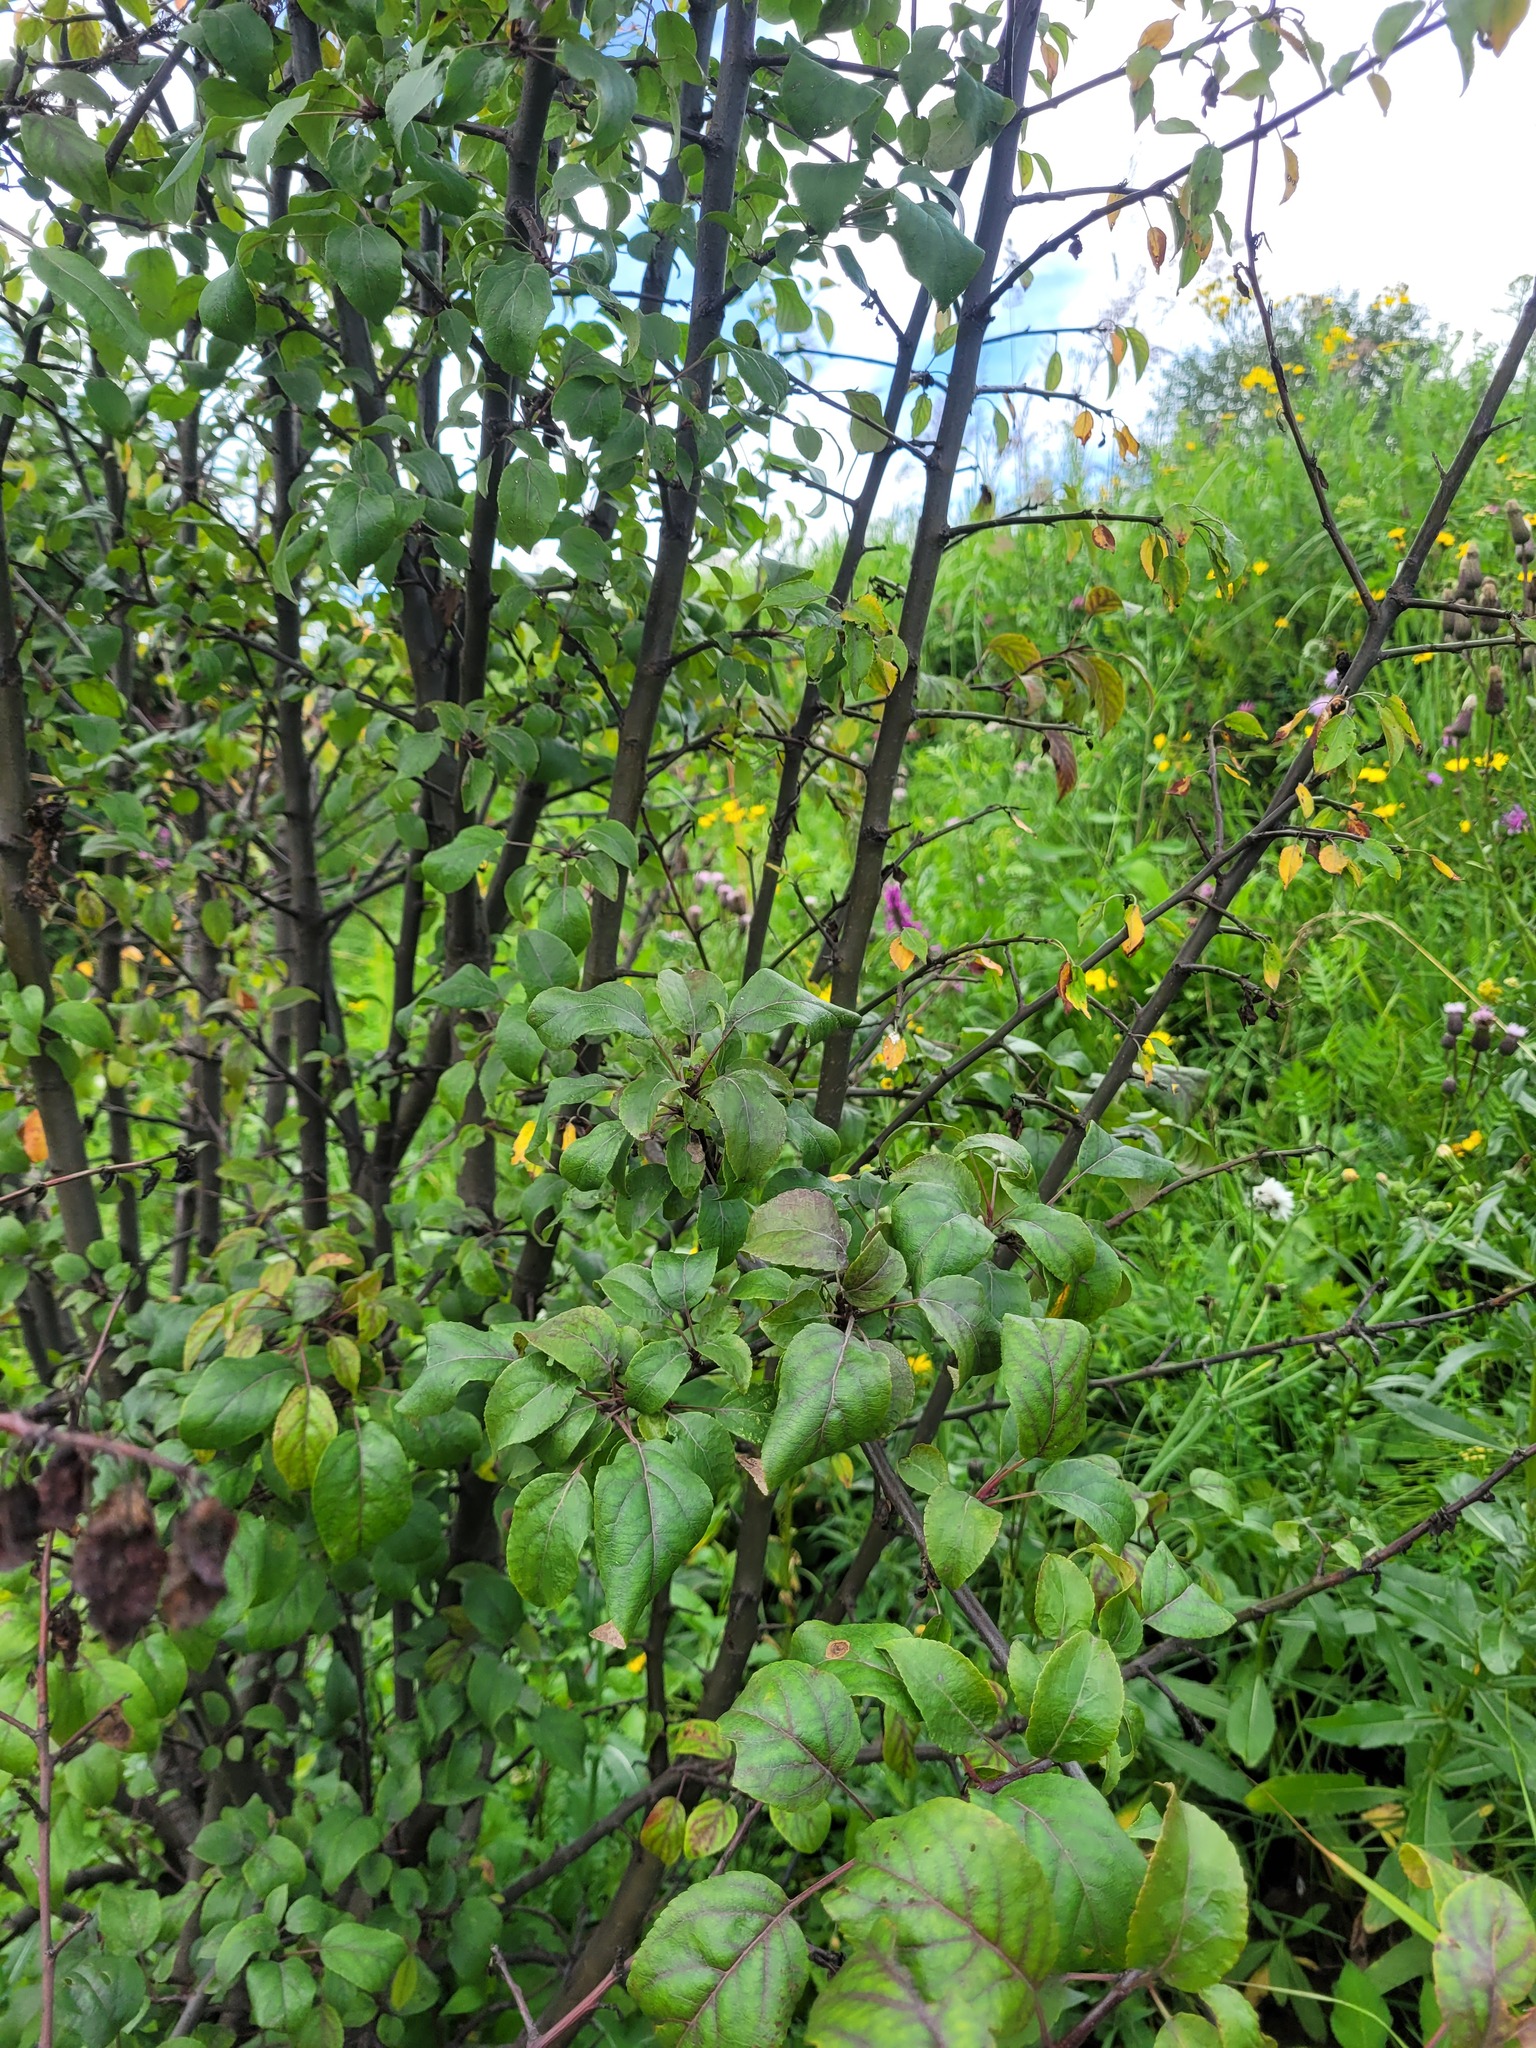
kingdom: Plantae
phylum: Tracheophyta
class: Magnoliopsida
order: Rosales
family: Rosaceae
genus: Malus
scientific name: Malus domestica
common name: Apple
